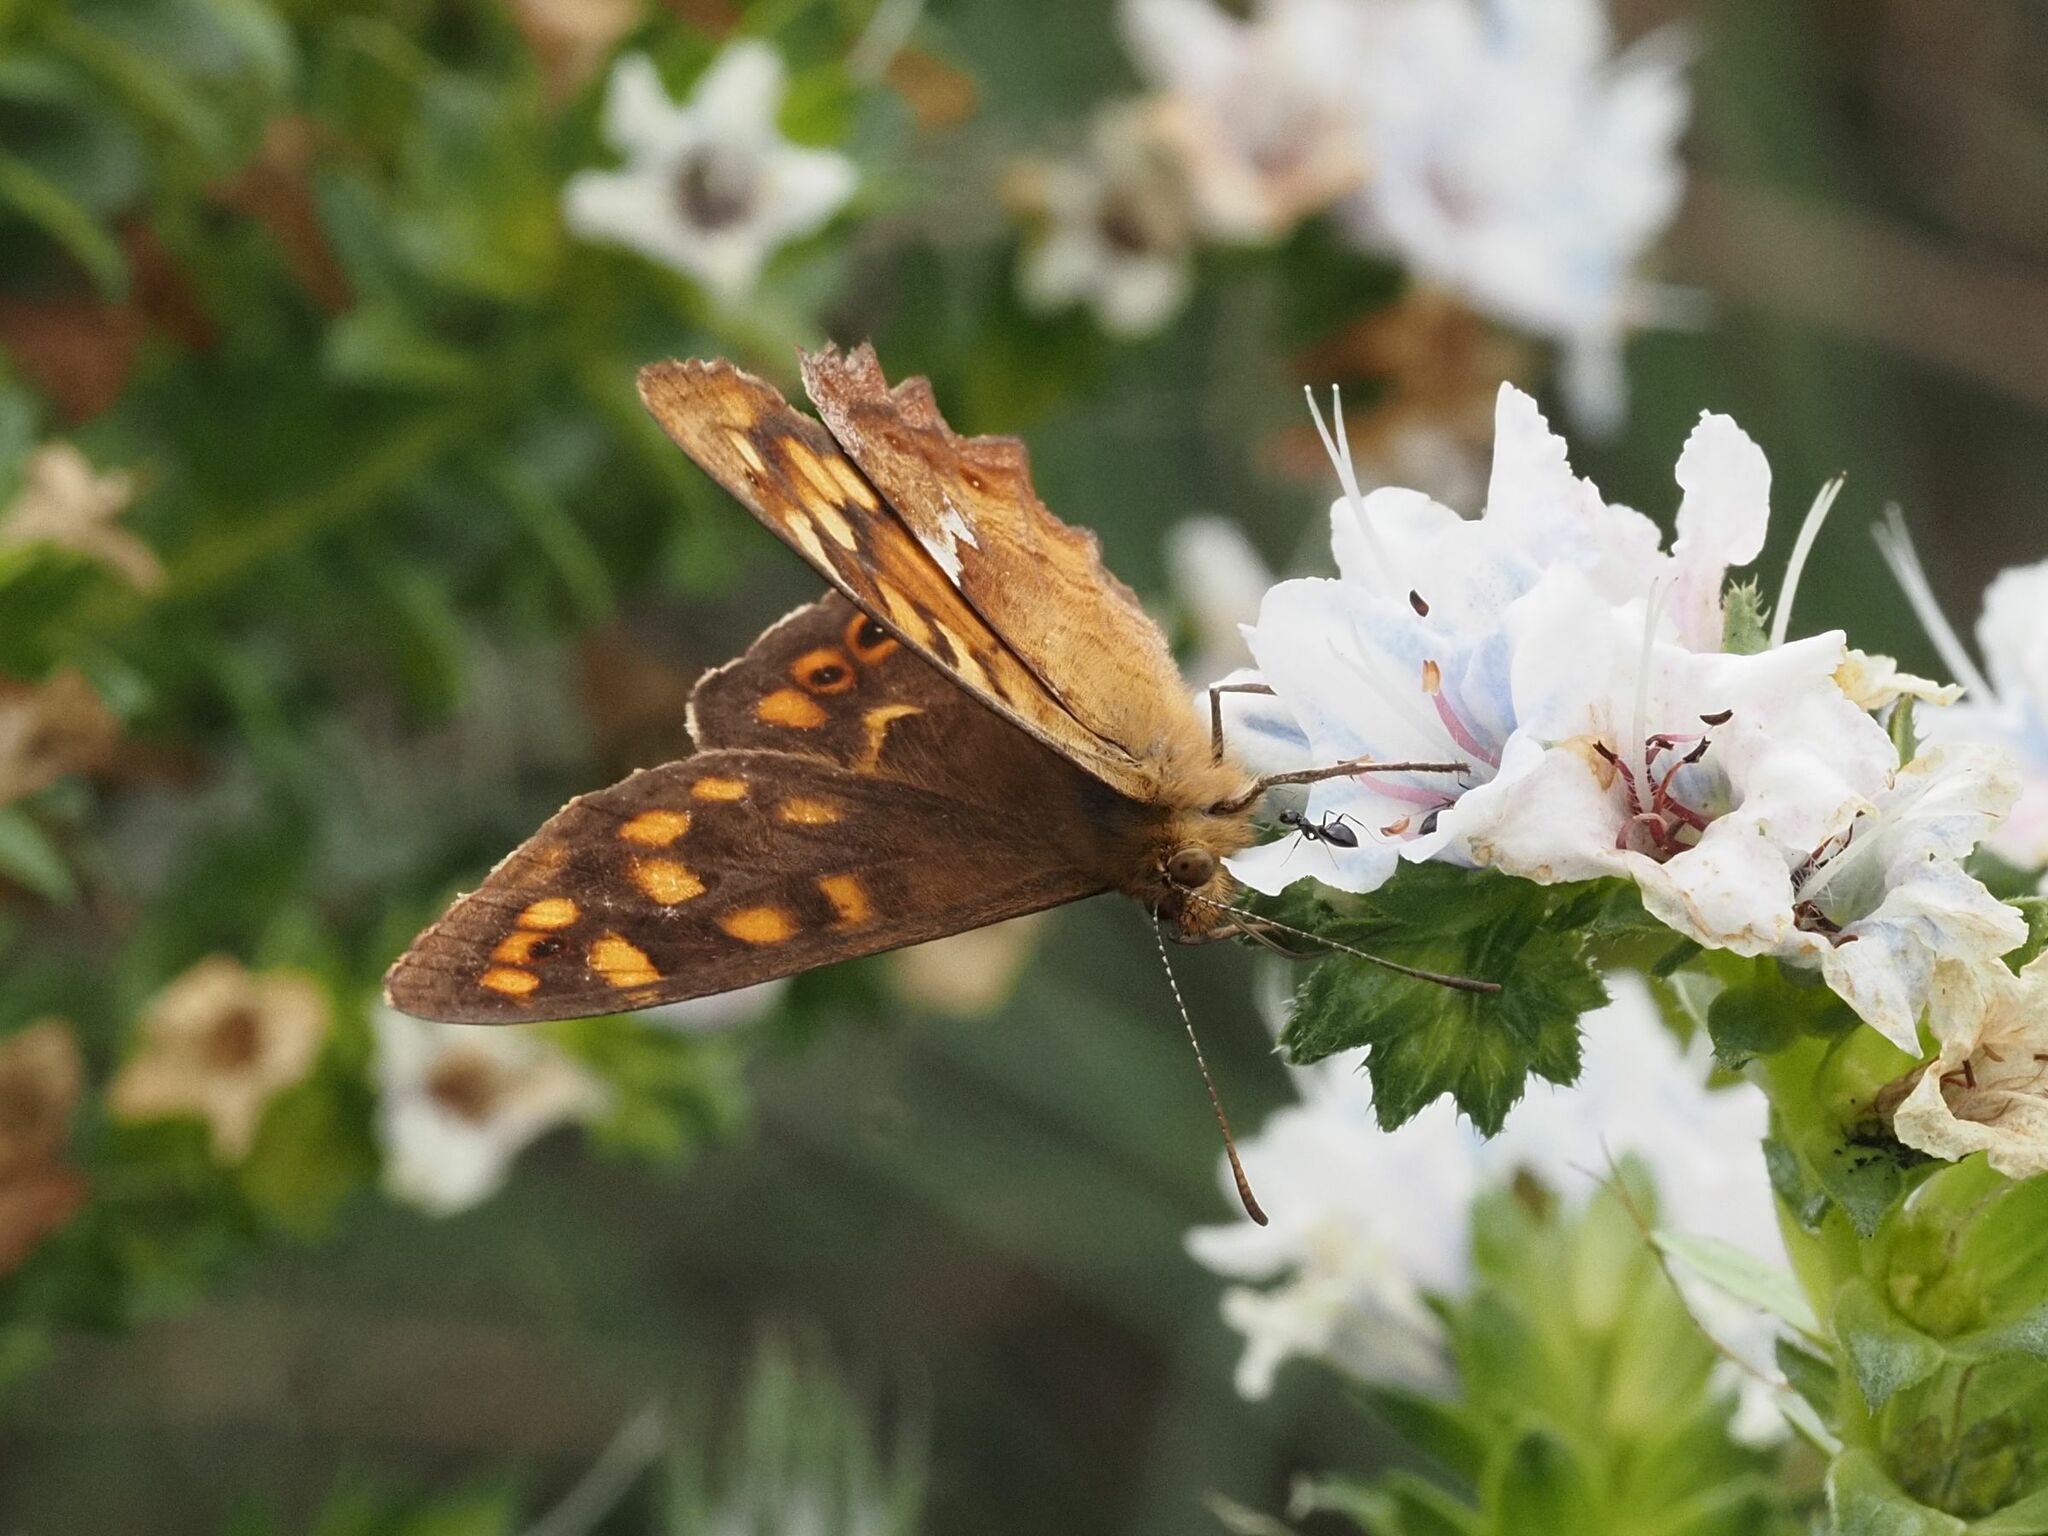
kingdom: Animalia
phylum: Arthropoda
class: Insecta
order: Lepidoptera
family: Nymphalidae
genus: Pararge
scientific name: Pararge aegeria
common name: Speckled wood
